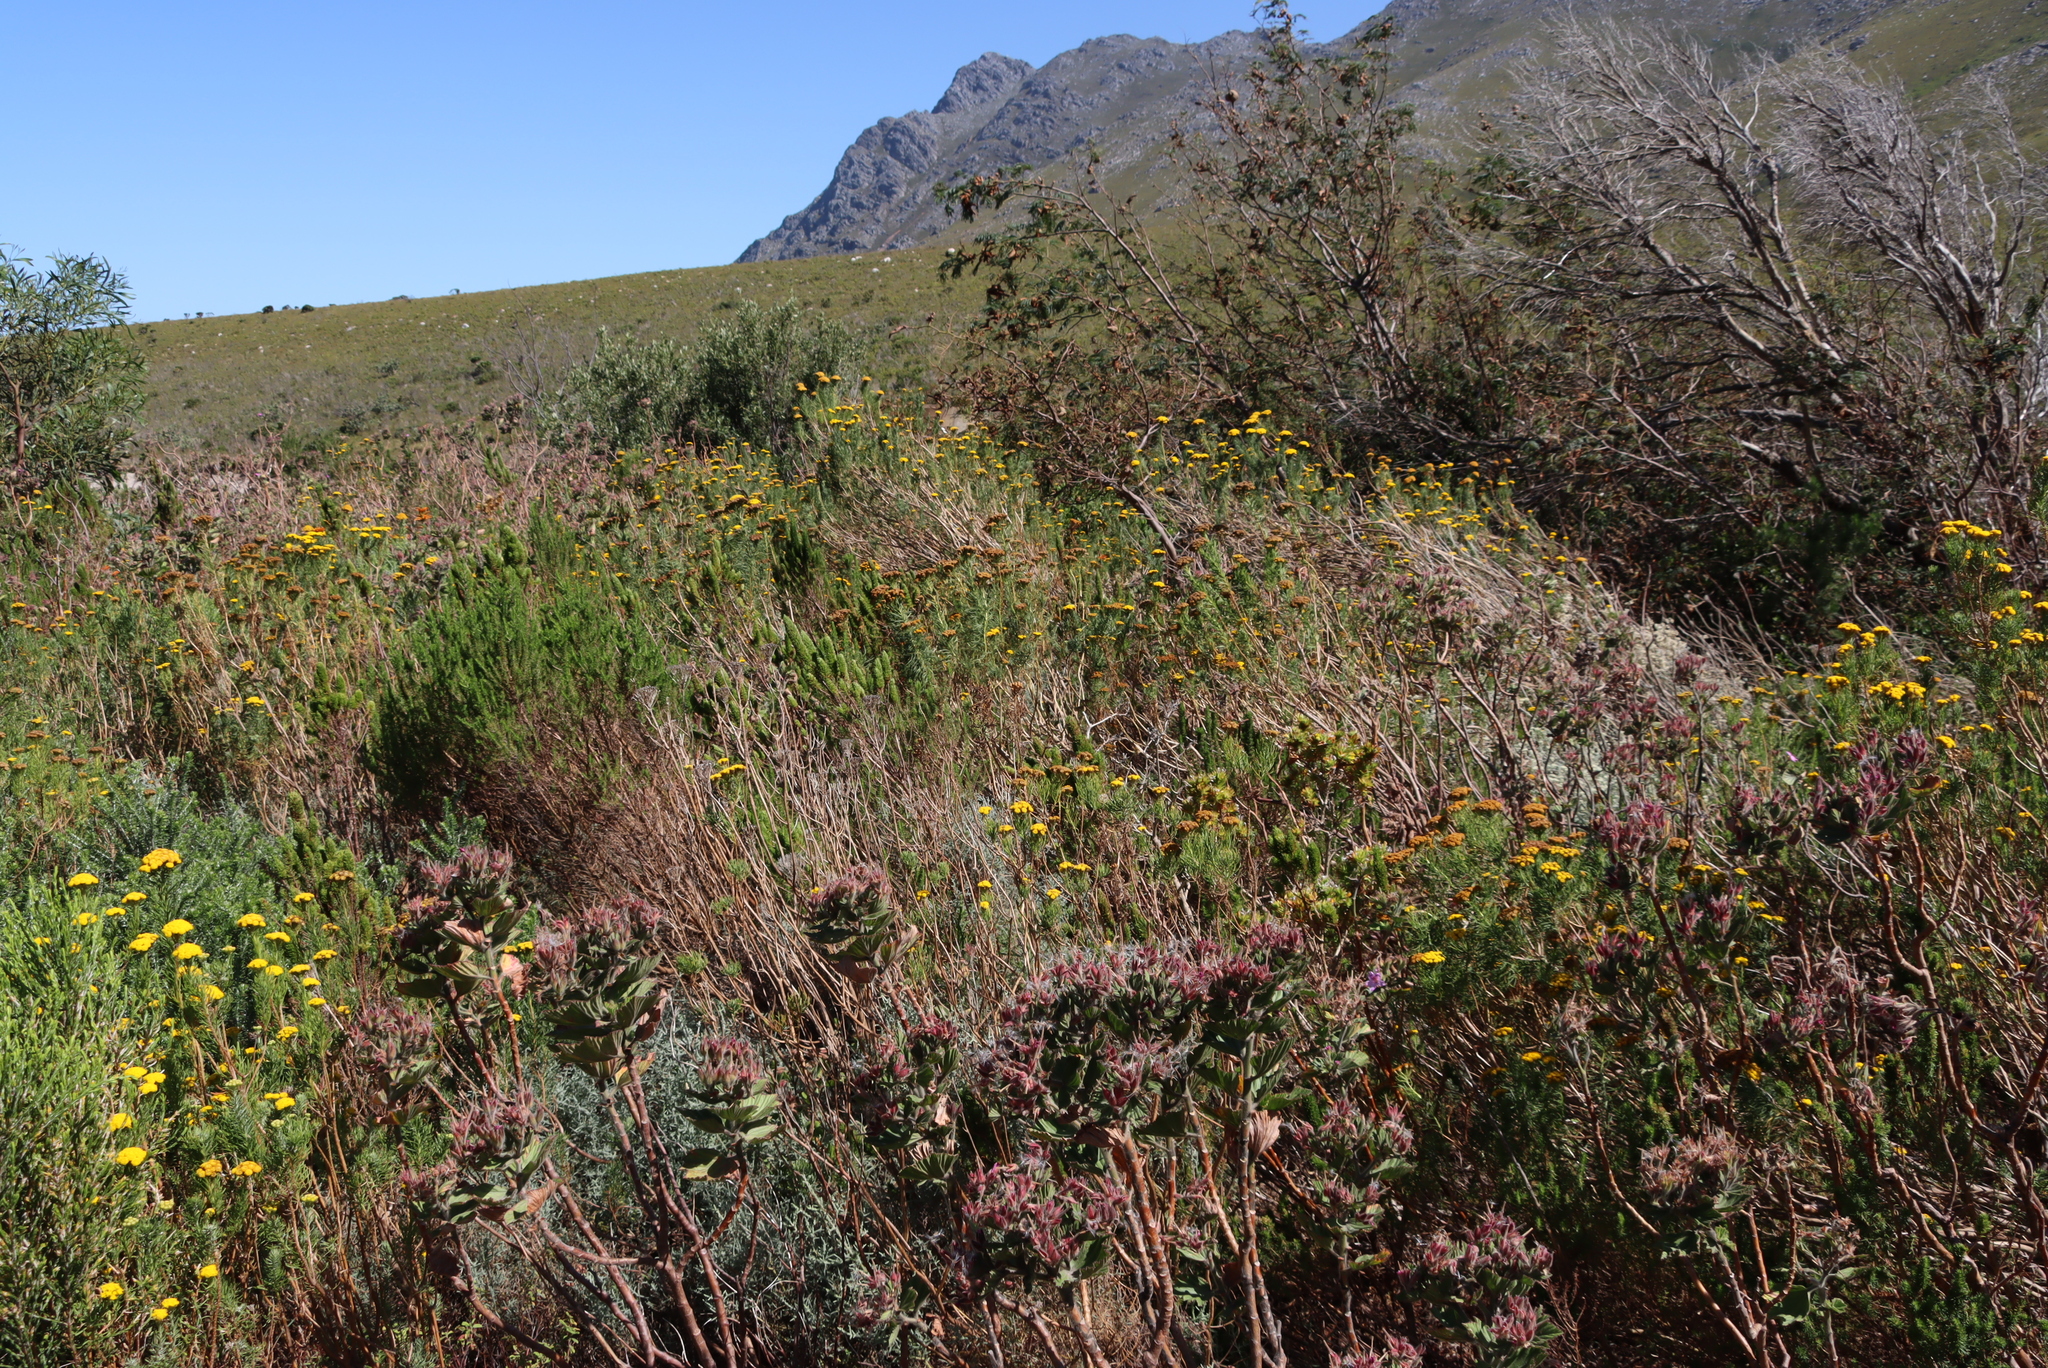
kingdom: Plantae
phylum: Tracheophyta
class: Magnoliopsida
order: Asterales
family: Asteraceae
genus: Athanasia
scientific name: Athanasia crithmifolia
